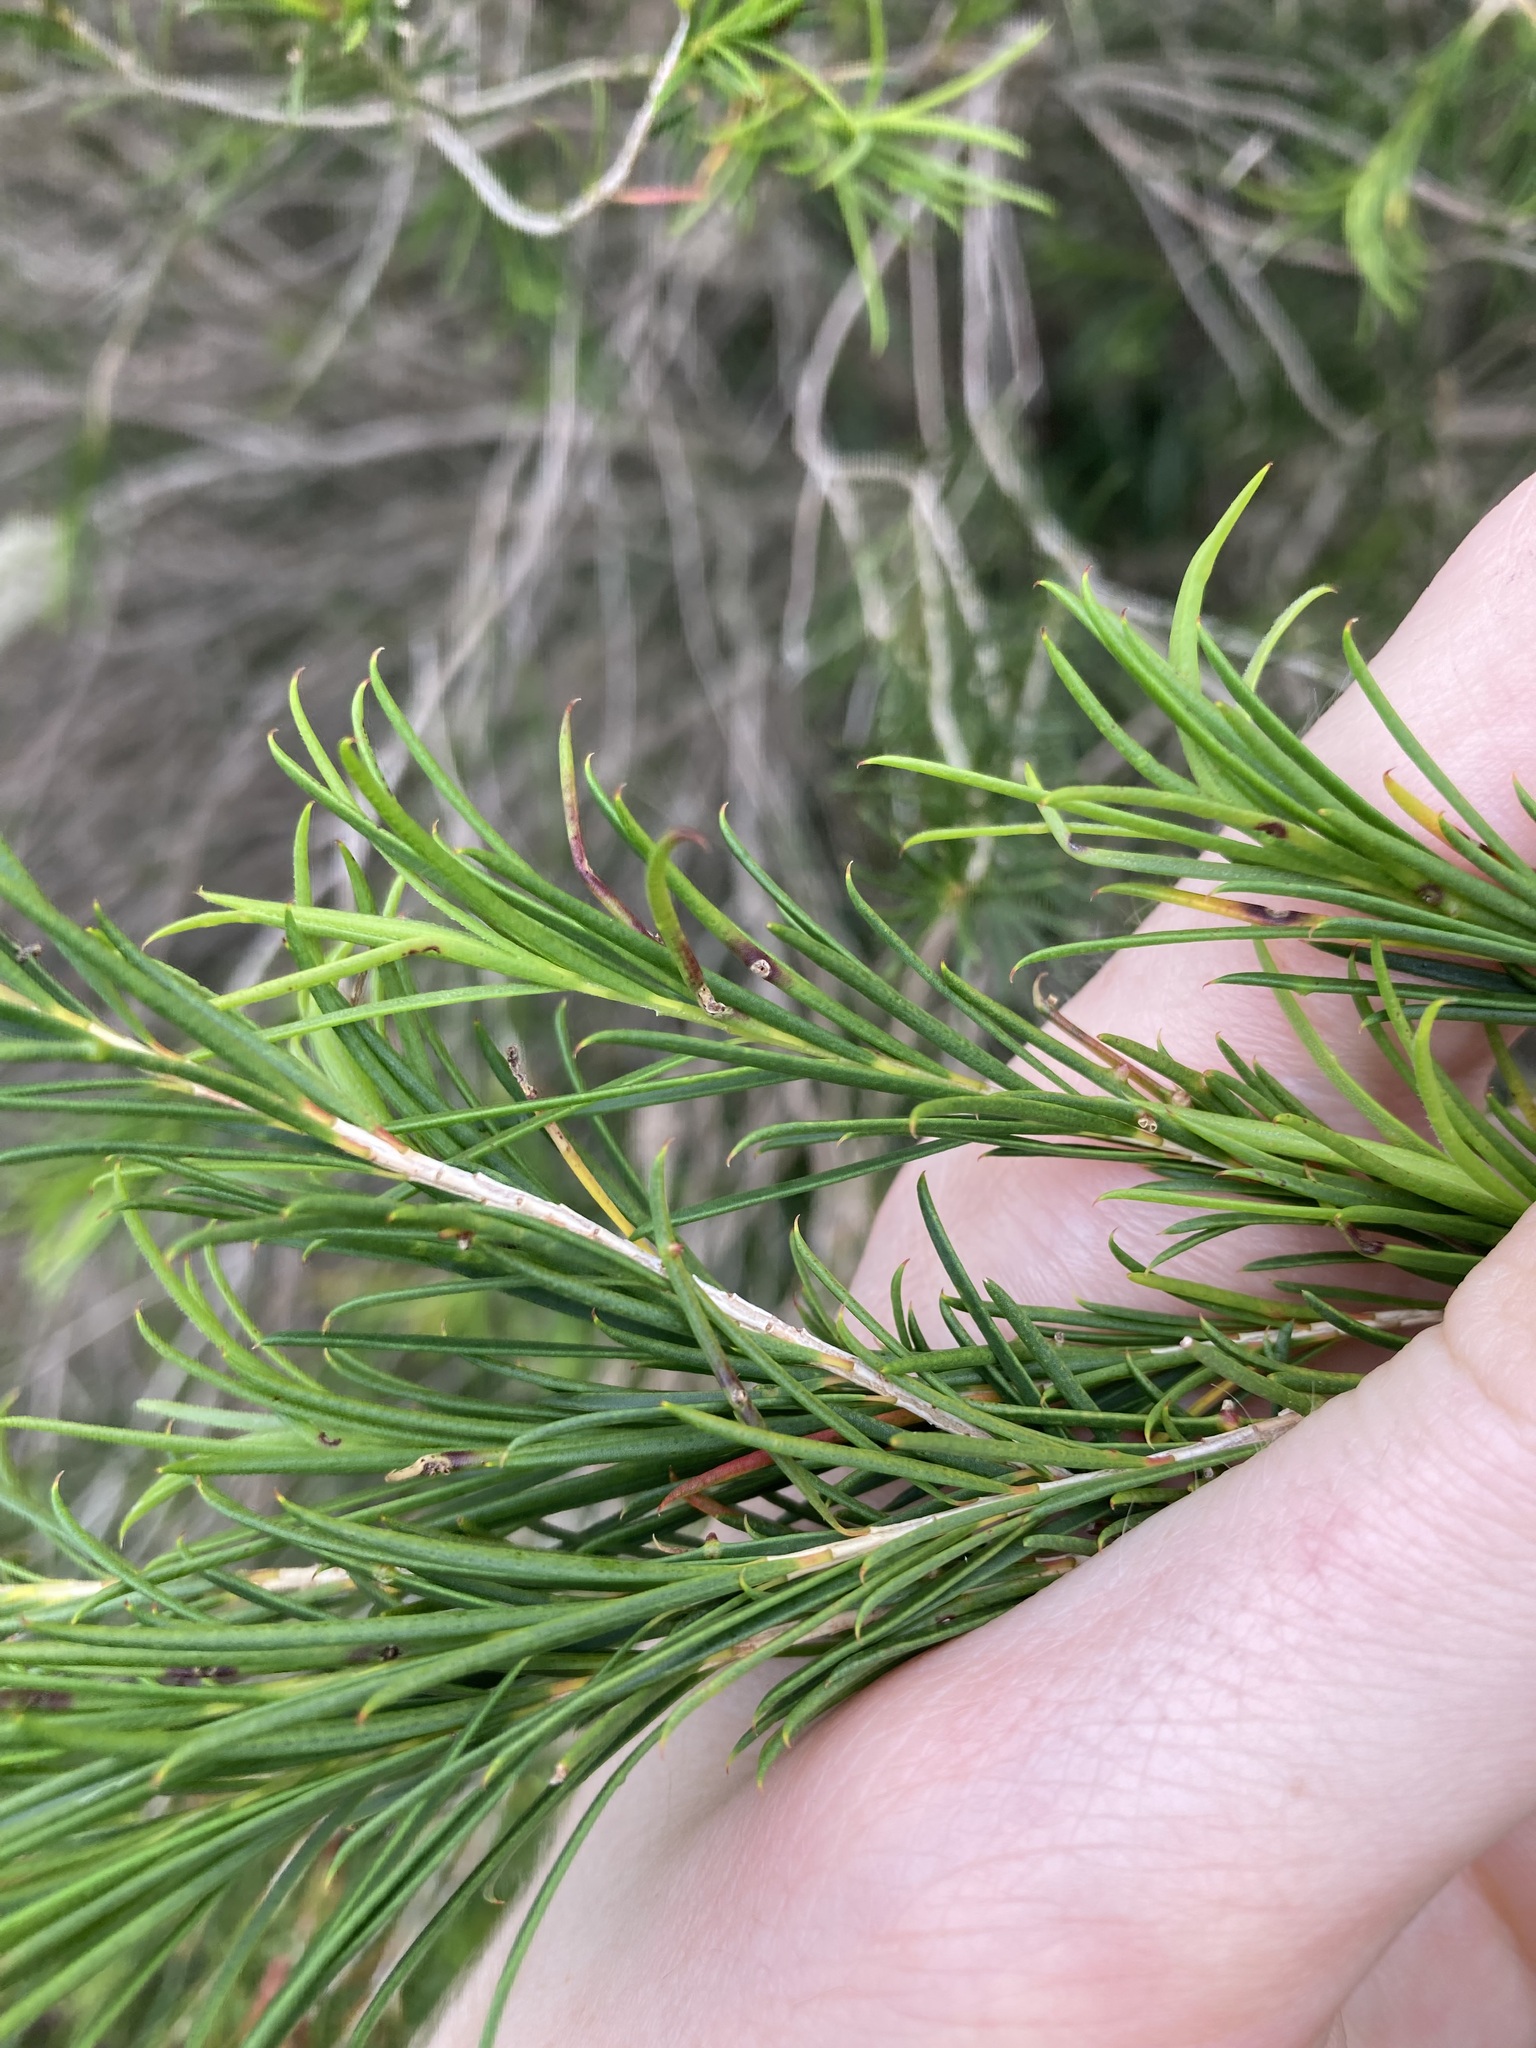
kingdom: Plantae
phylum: Tracheophyta
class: Magnoliopsida
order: Myrtales
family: Myrtaceae
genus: Melaleuca
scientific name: Melaleuca armillaris
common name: Bracelet honey myrtle
